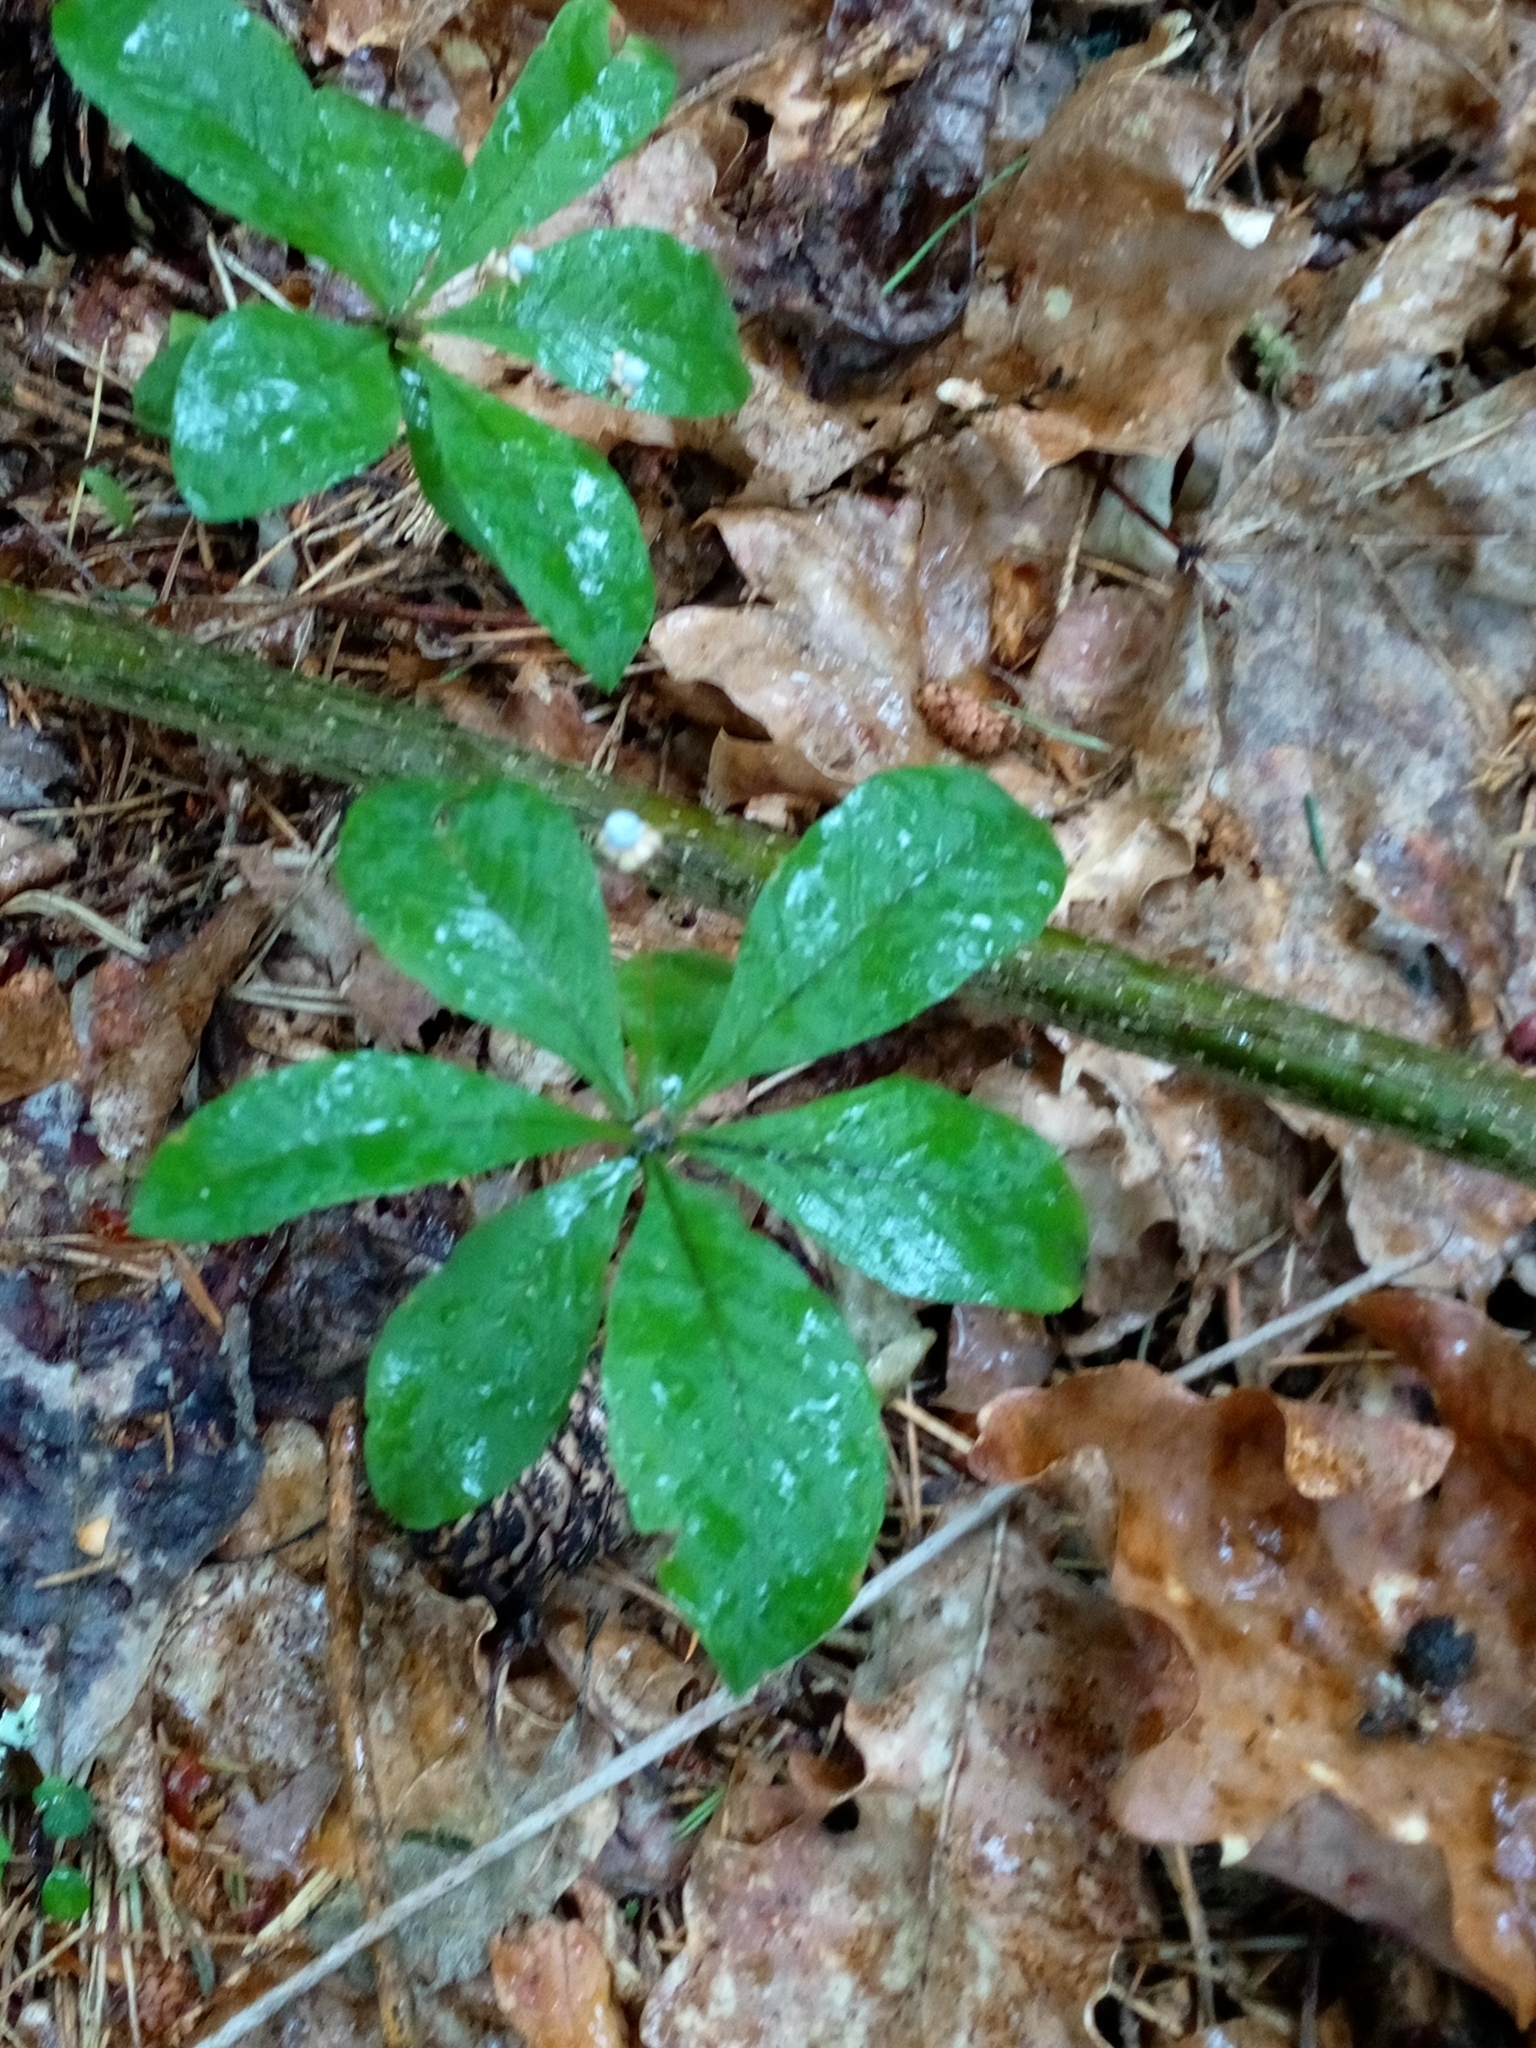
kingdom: Plantae
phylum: Tracheophyta
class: Magnoliopsida
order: Ericales
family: Primulaceae
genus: Lysimachia
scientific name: Lysimachia europaea
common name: Arctic starflower
